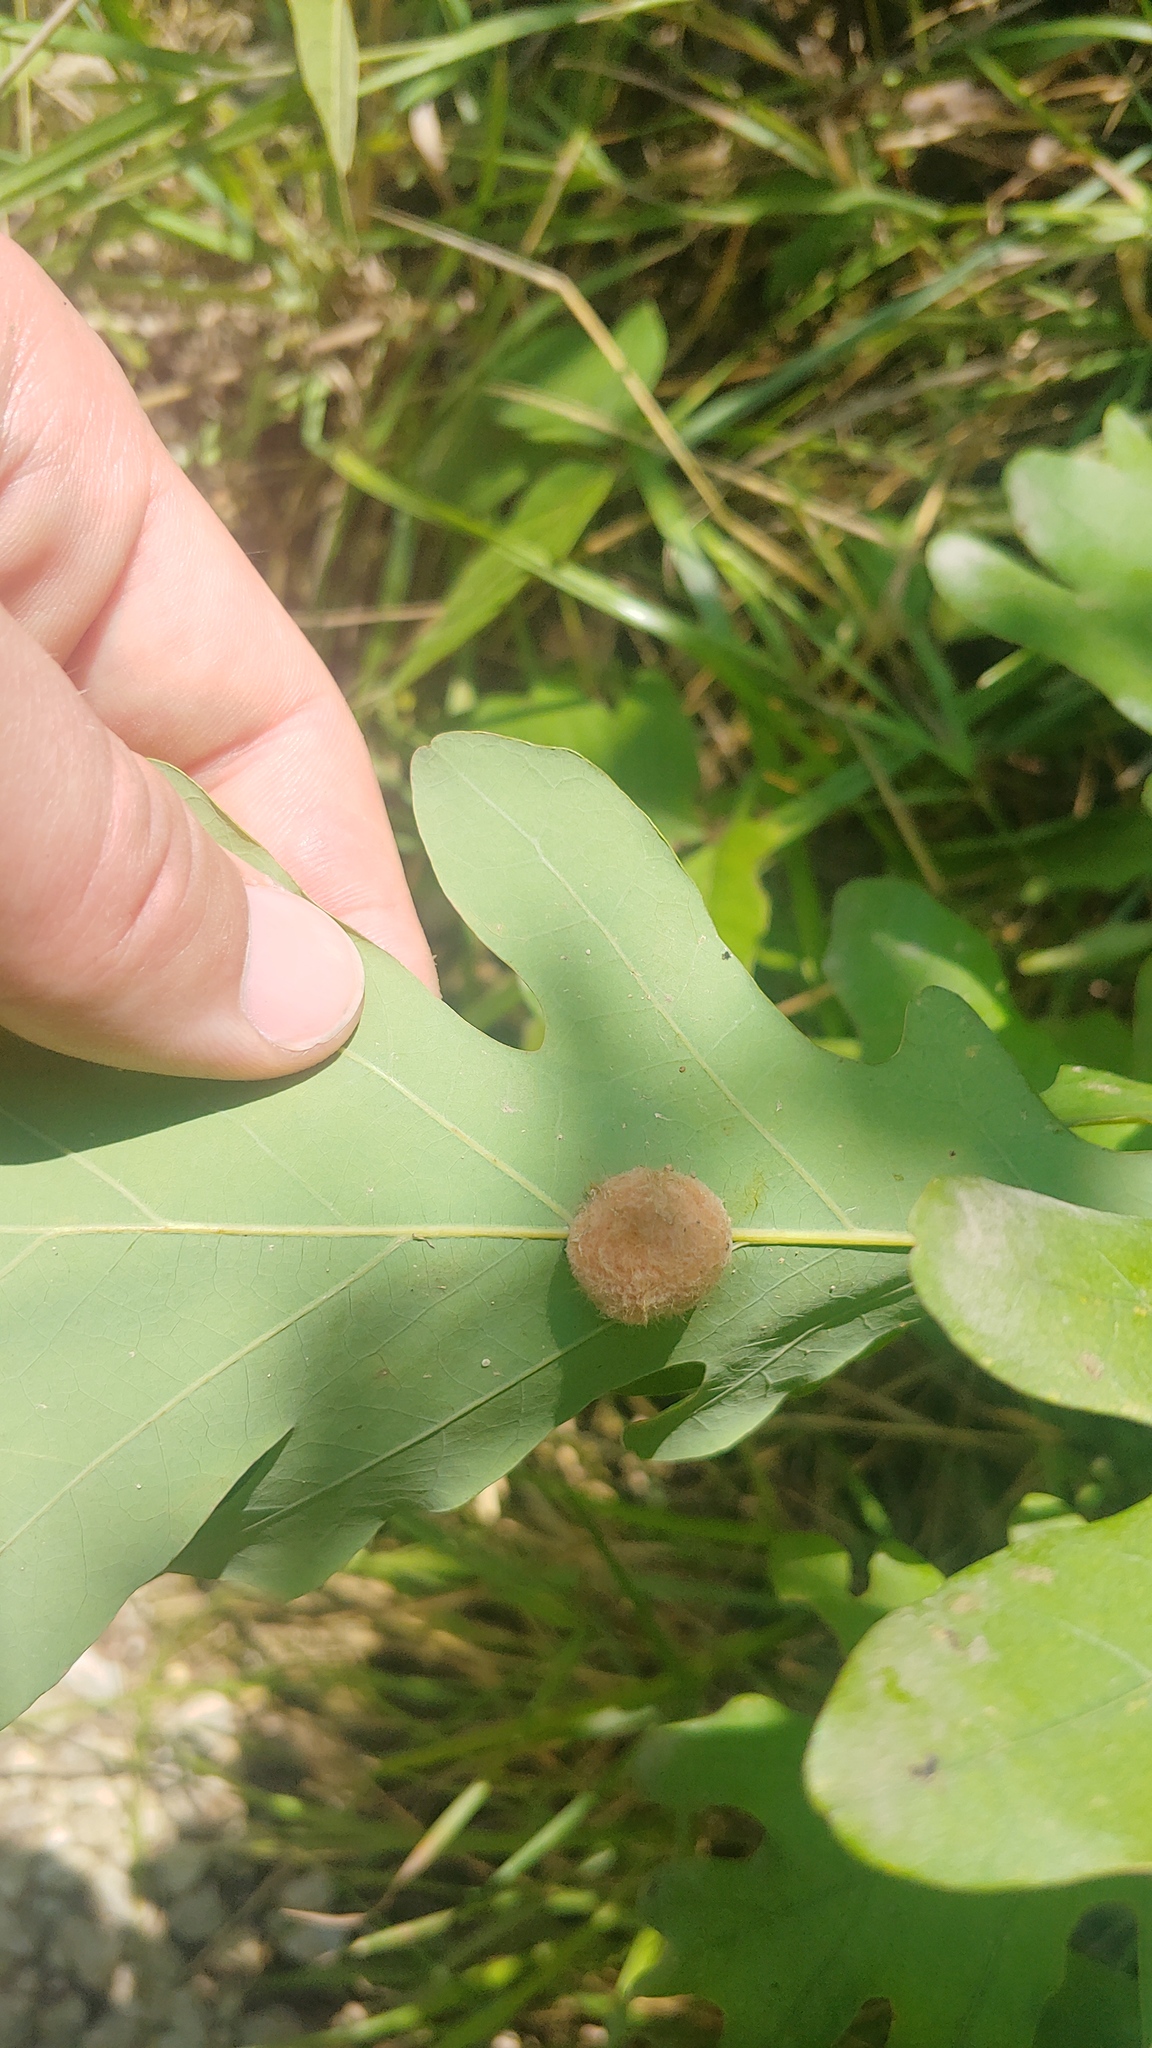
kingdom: Animalia
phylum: Arthropoda
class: Insecta
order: Hymenoptera
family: Cynipidae
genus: Andricus
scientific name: Andricus quercusflocci
